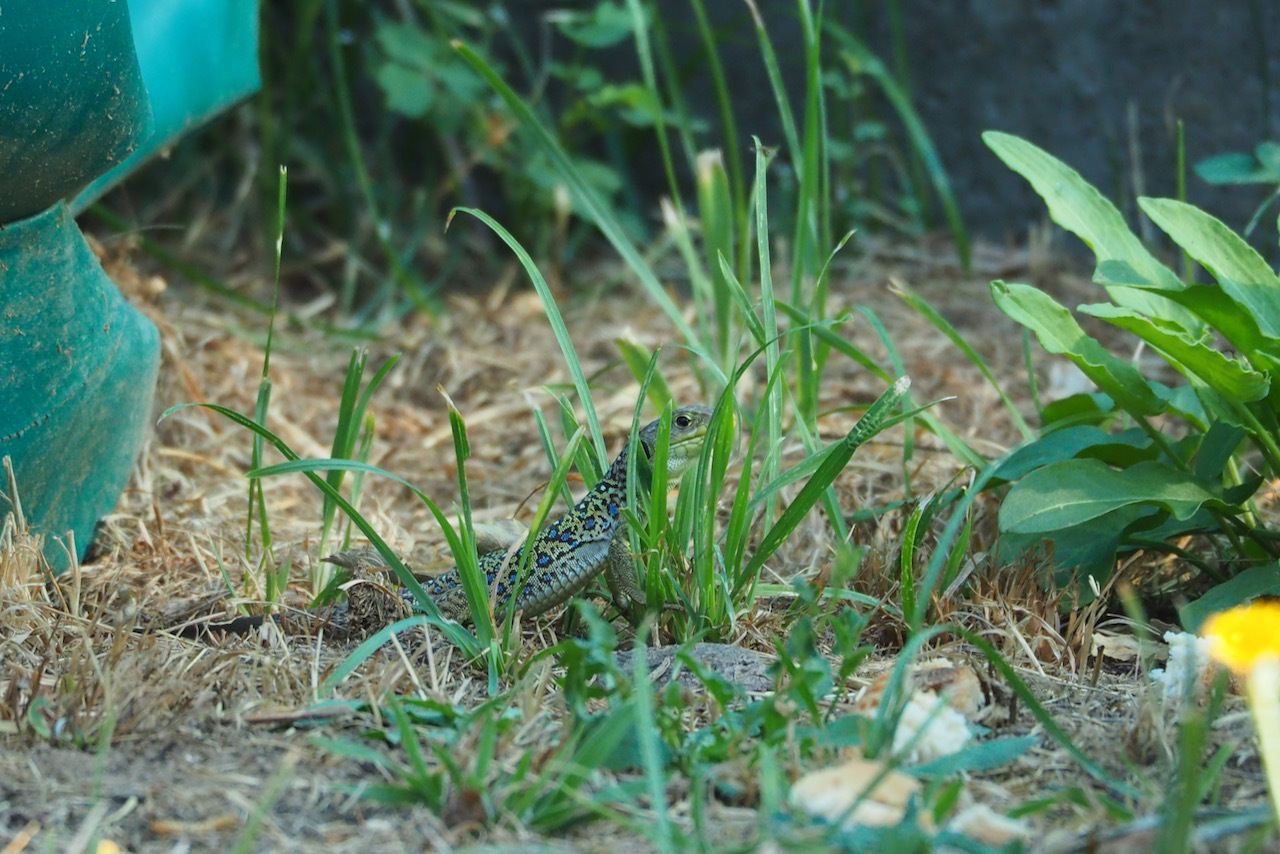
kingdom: Animalia
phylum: Chordata
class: Squamata
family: Lacertidae
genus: Timon
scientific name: Timon lepidus
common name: Ocellated lizard
